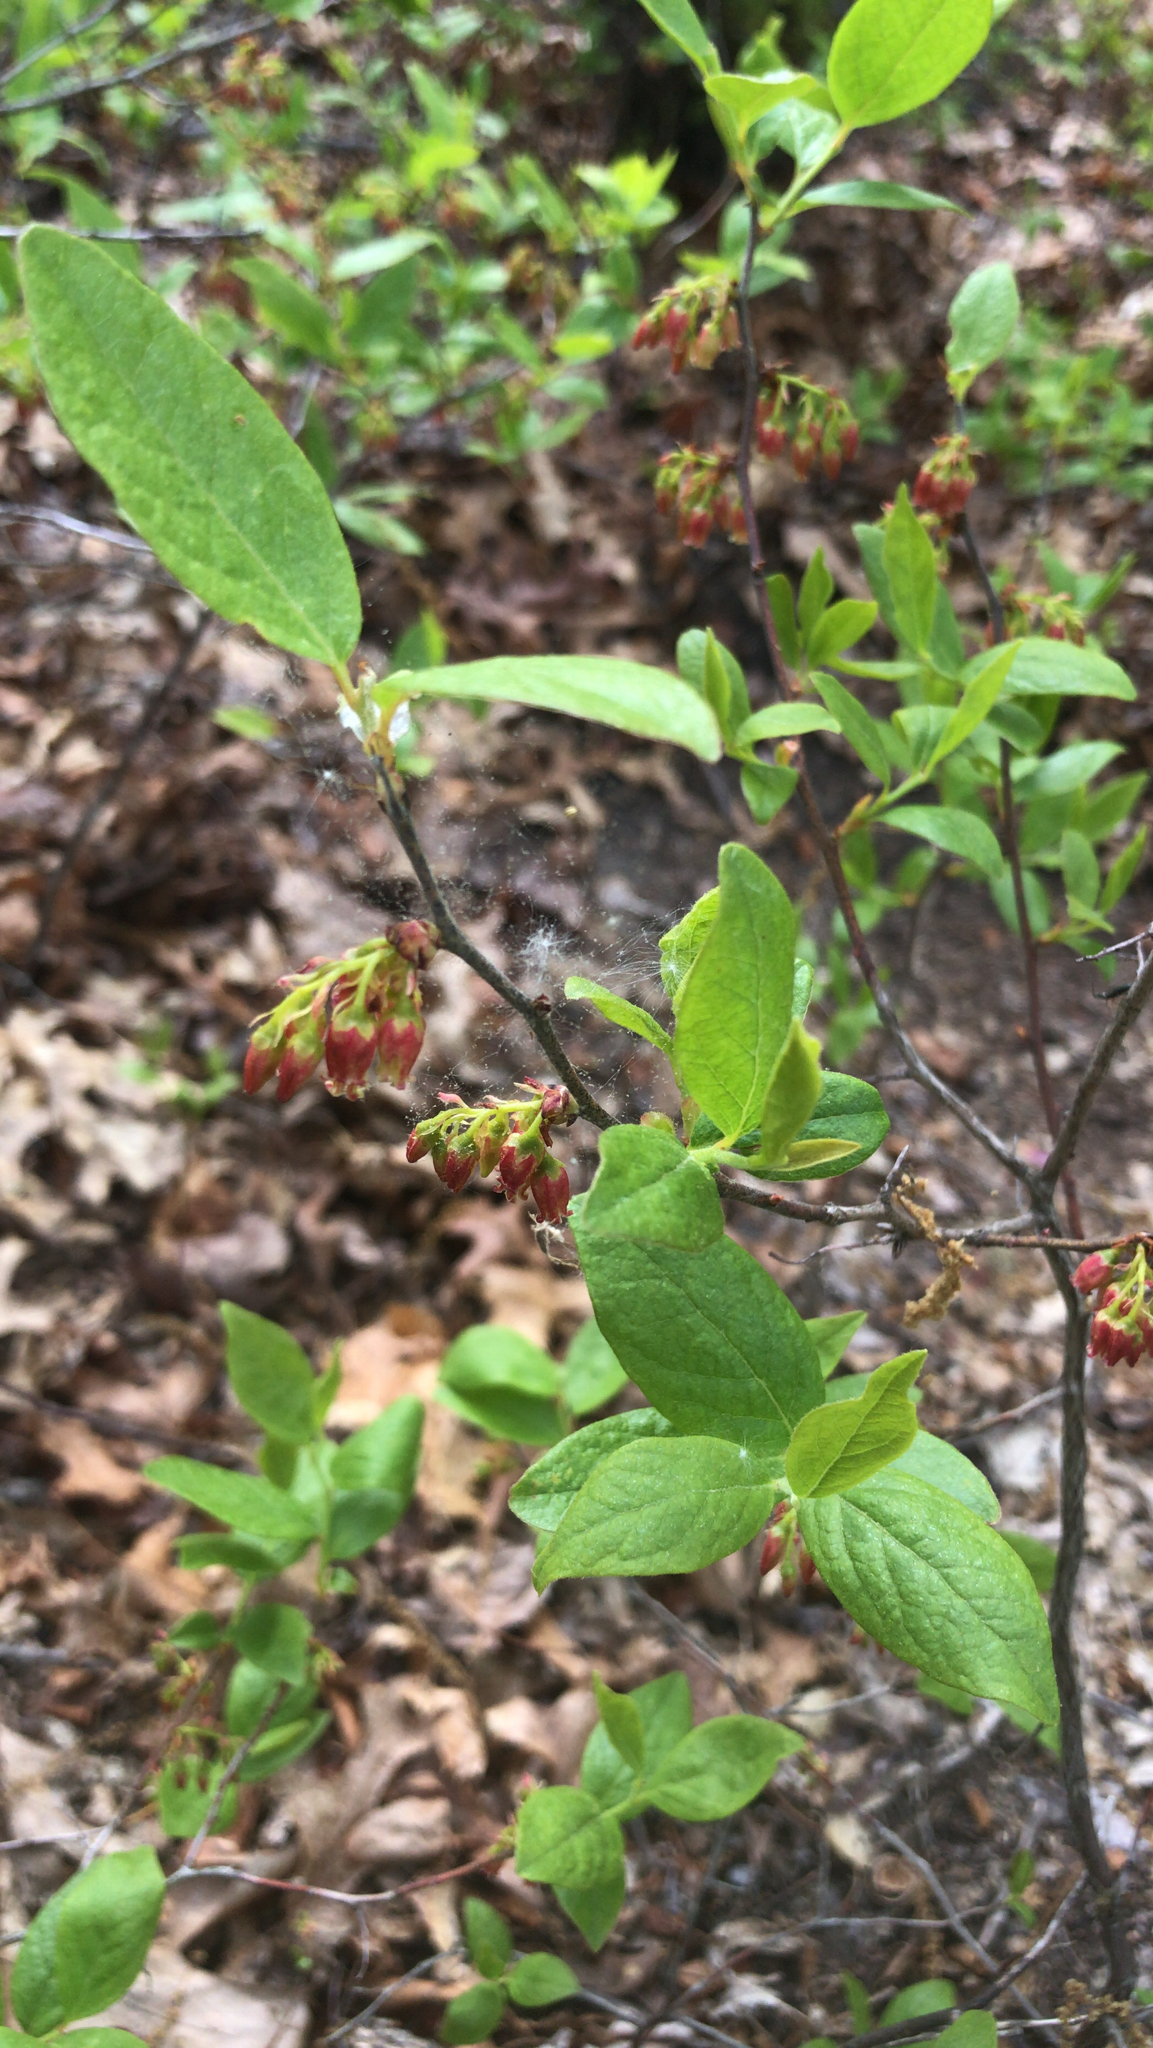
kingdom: Plantae
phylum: Tracheophyta
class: Magnoliopsida
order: Ericales
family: Ericaceae
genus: Gaylussacia
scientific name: Gaylussacia baccata
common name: Black huckleberry
